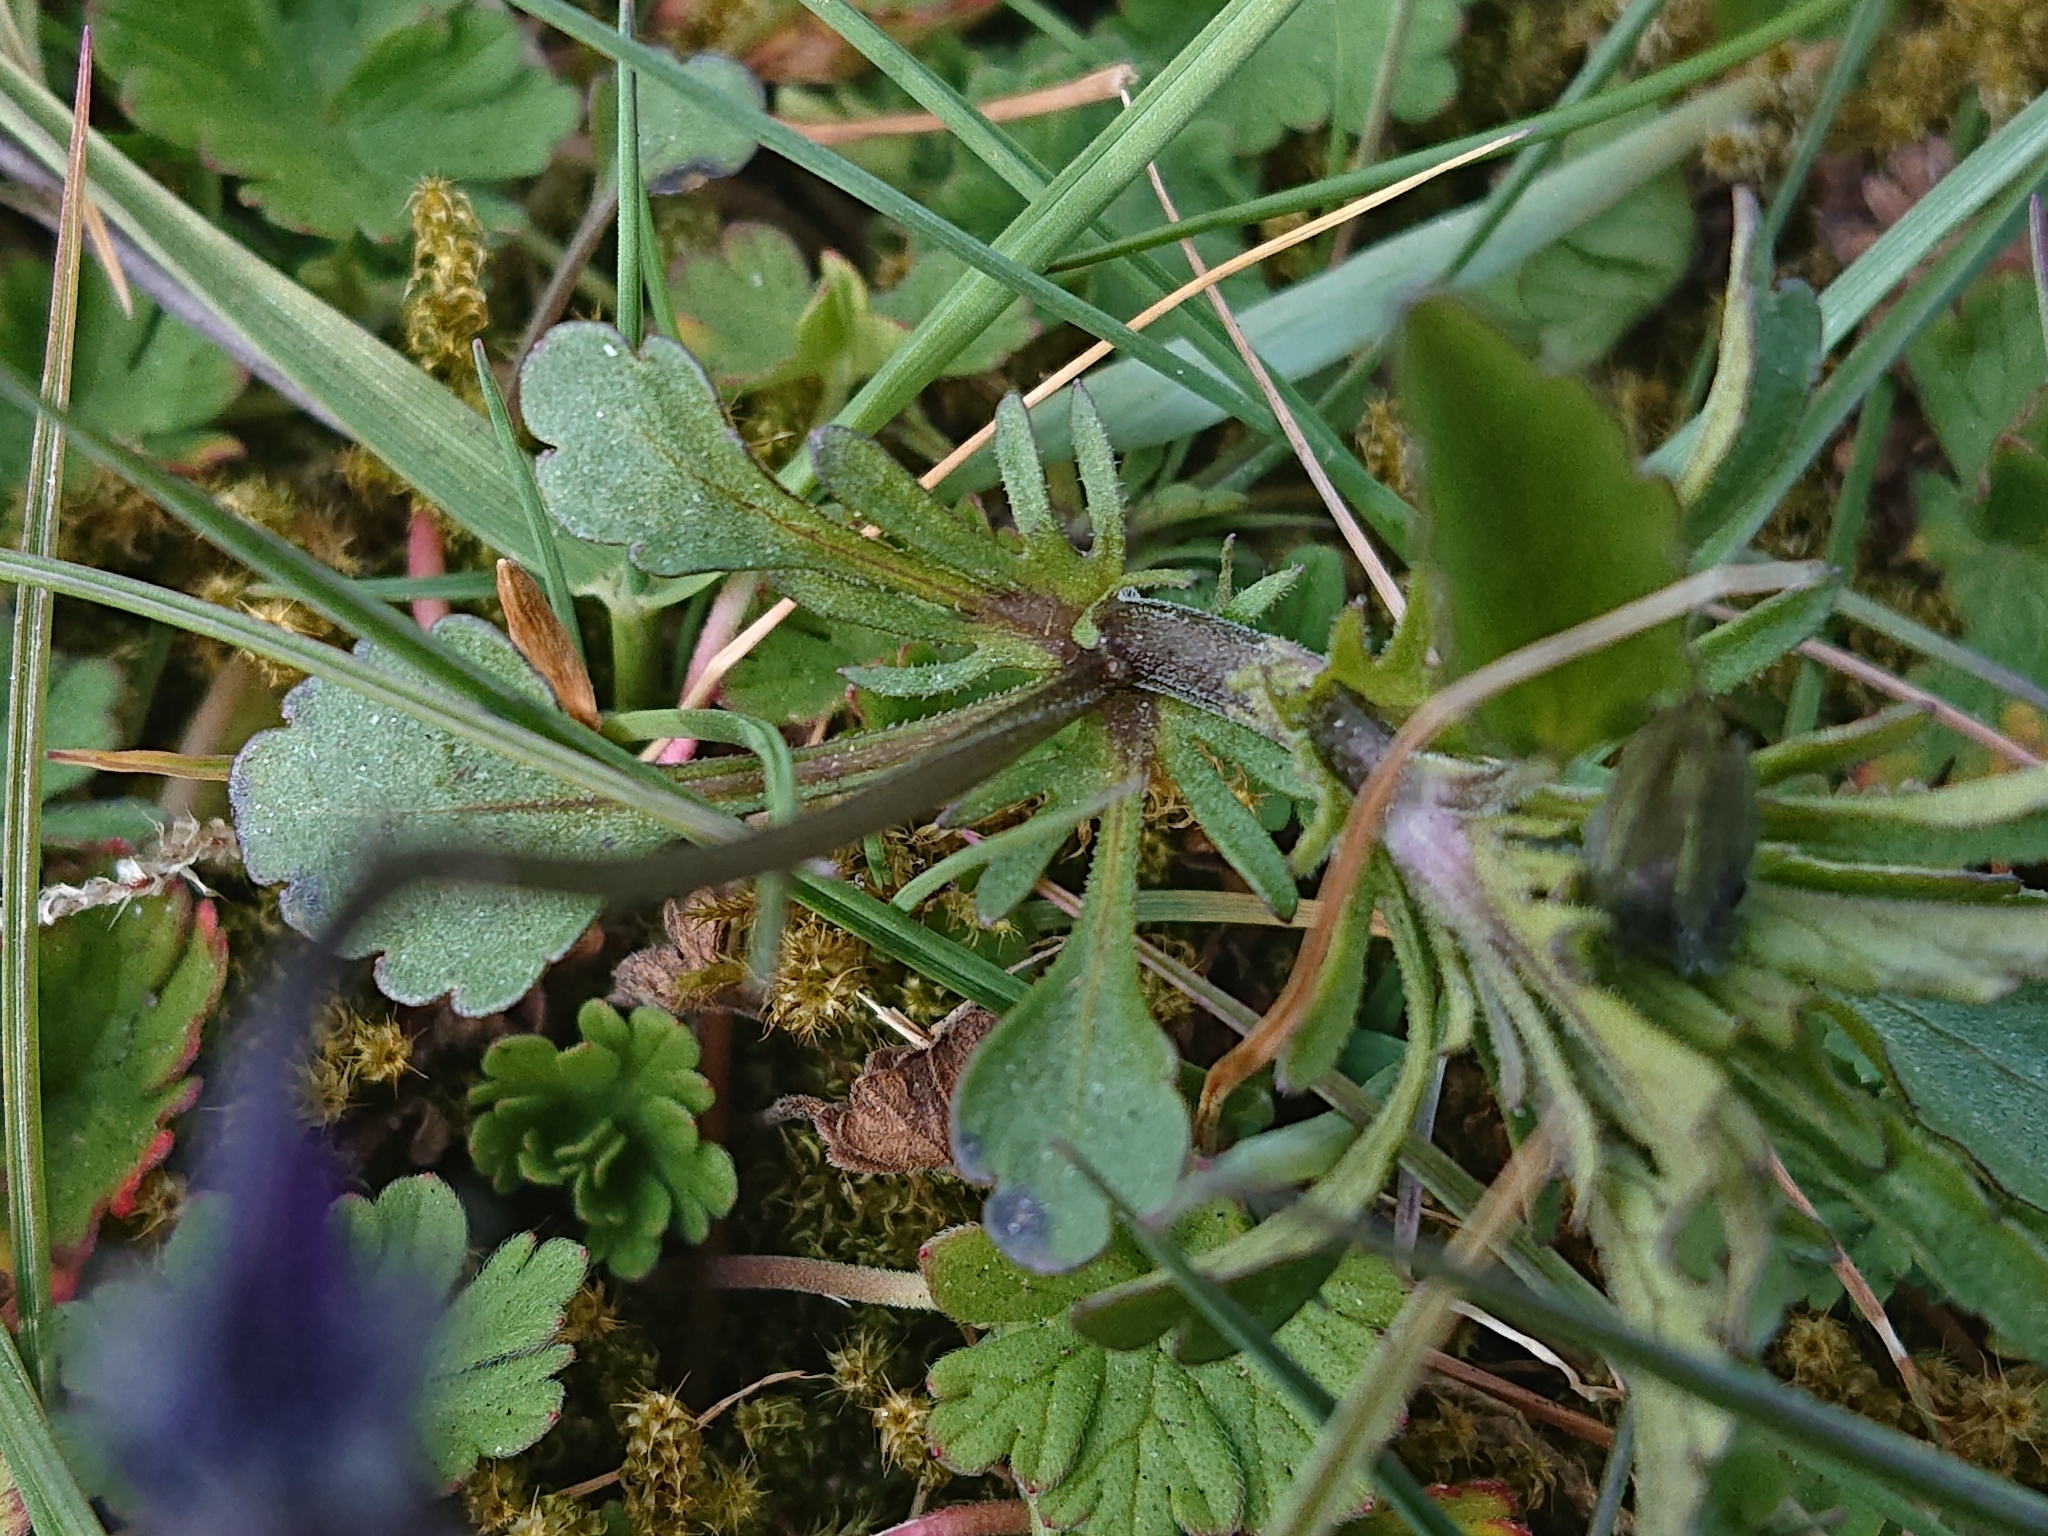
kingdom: Plantae
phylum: Tracheophyta
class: Magnoliopsida
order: Malpighiales
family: Violaceae
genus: Viola
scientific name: Viola arvensis
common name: Field pansy
